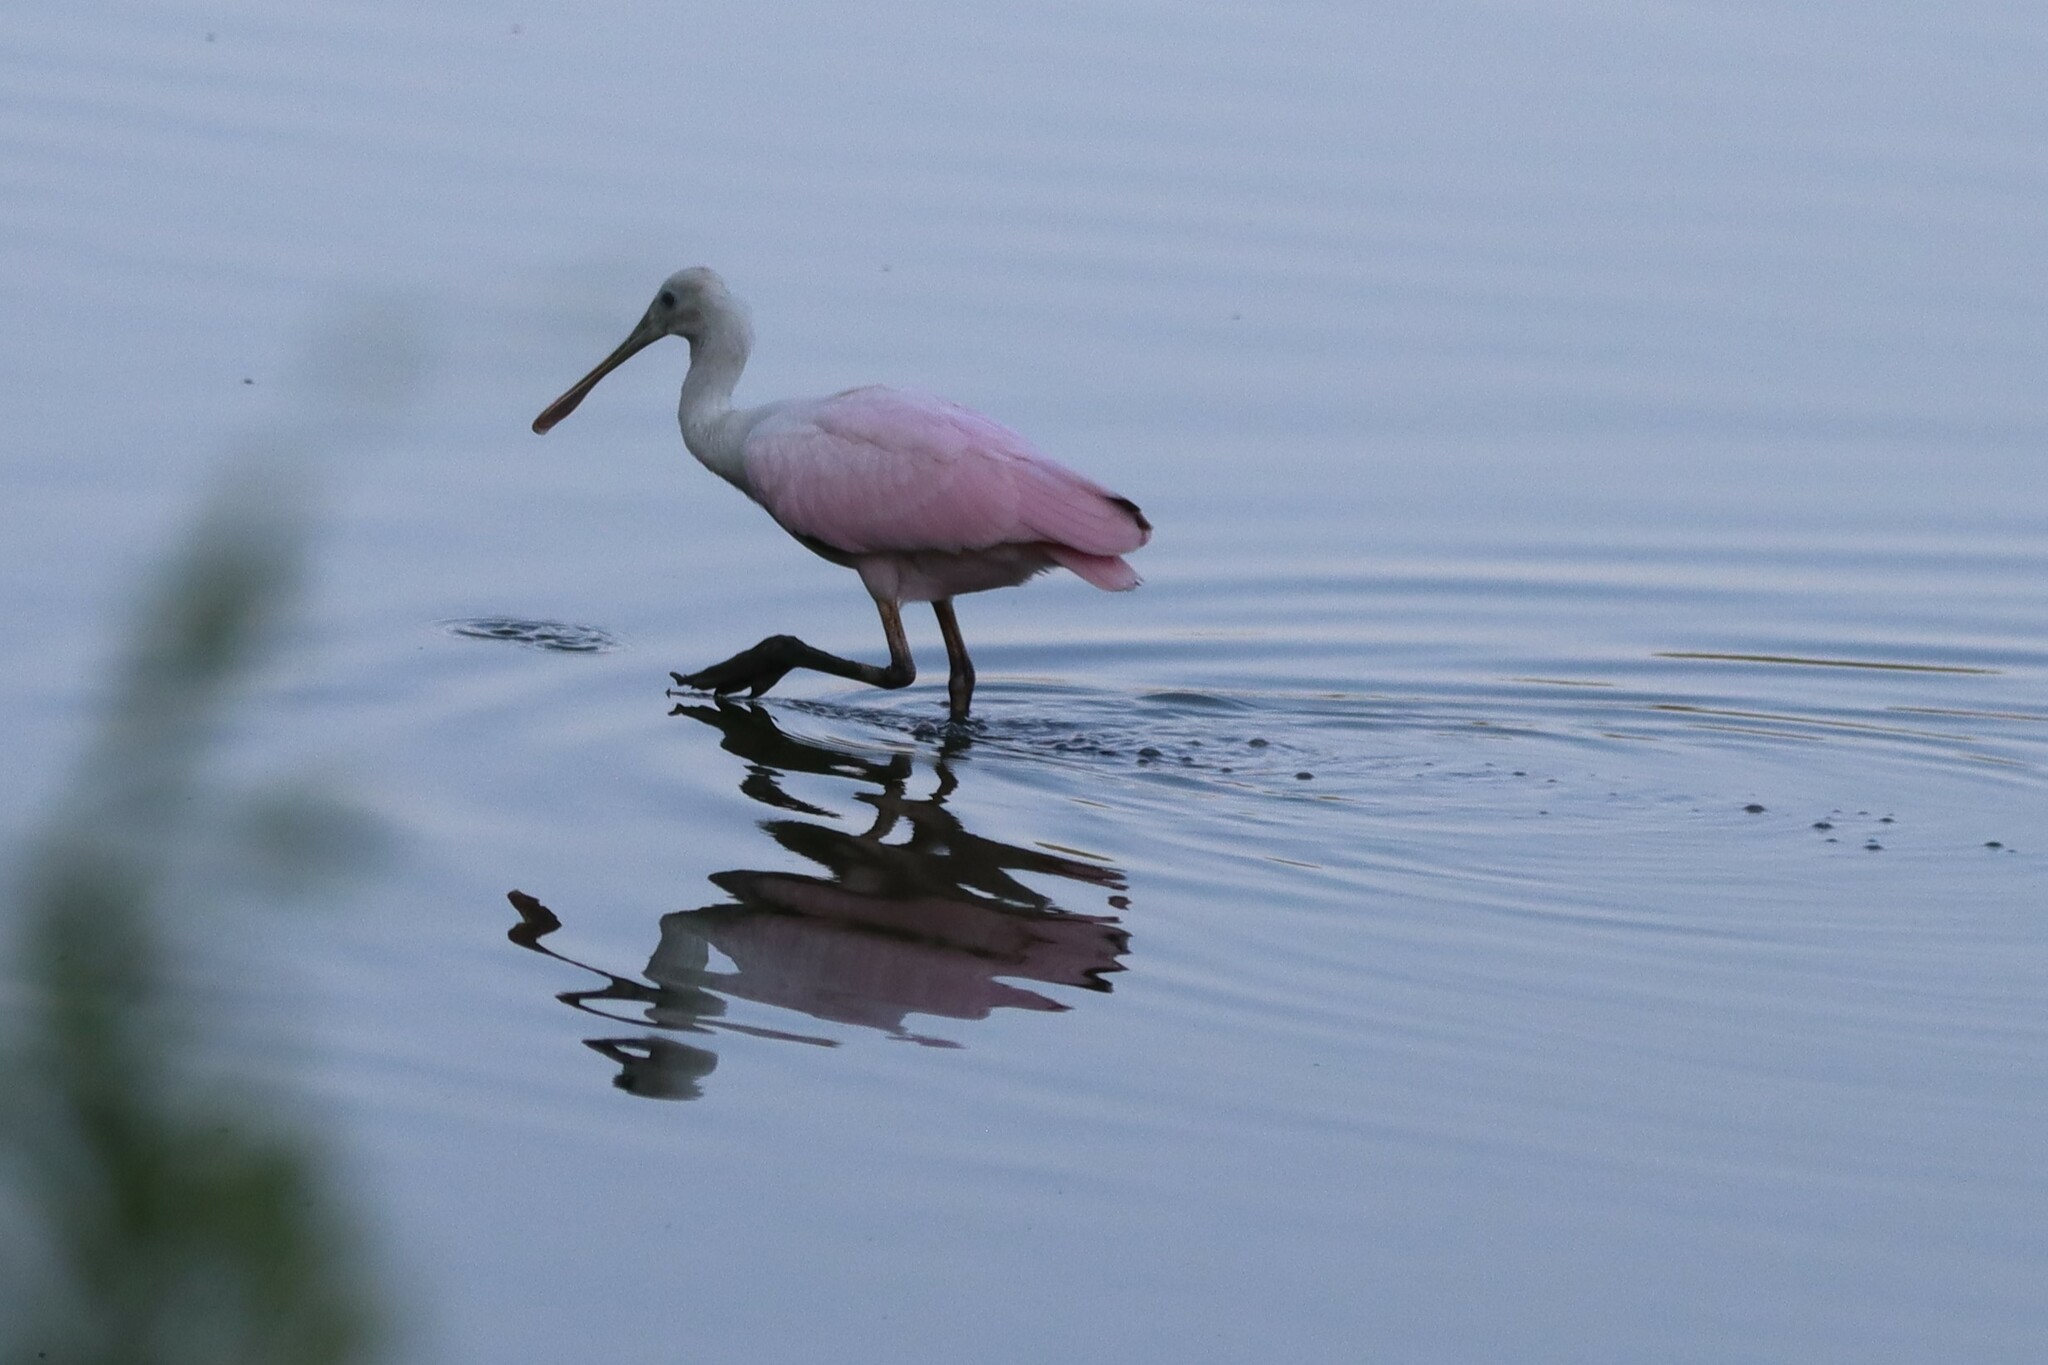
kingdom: Animalia
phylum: Chordata
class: Aves
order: Pelecaniformes
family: Threskiornithidae
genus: Platalea
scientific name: Platalea ajaja
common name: Roseate spoonbill
